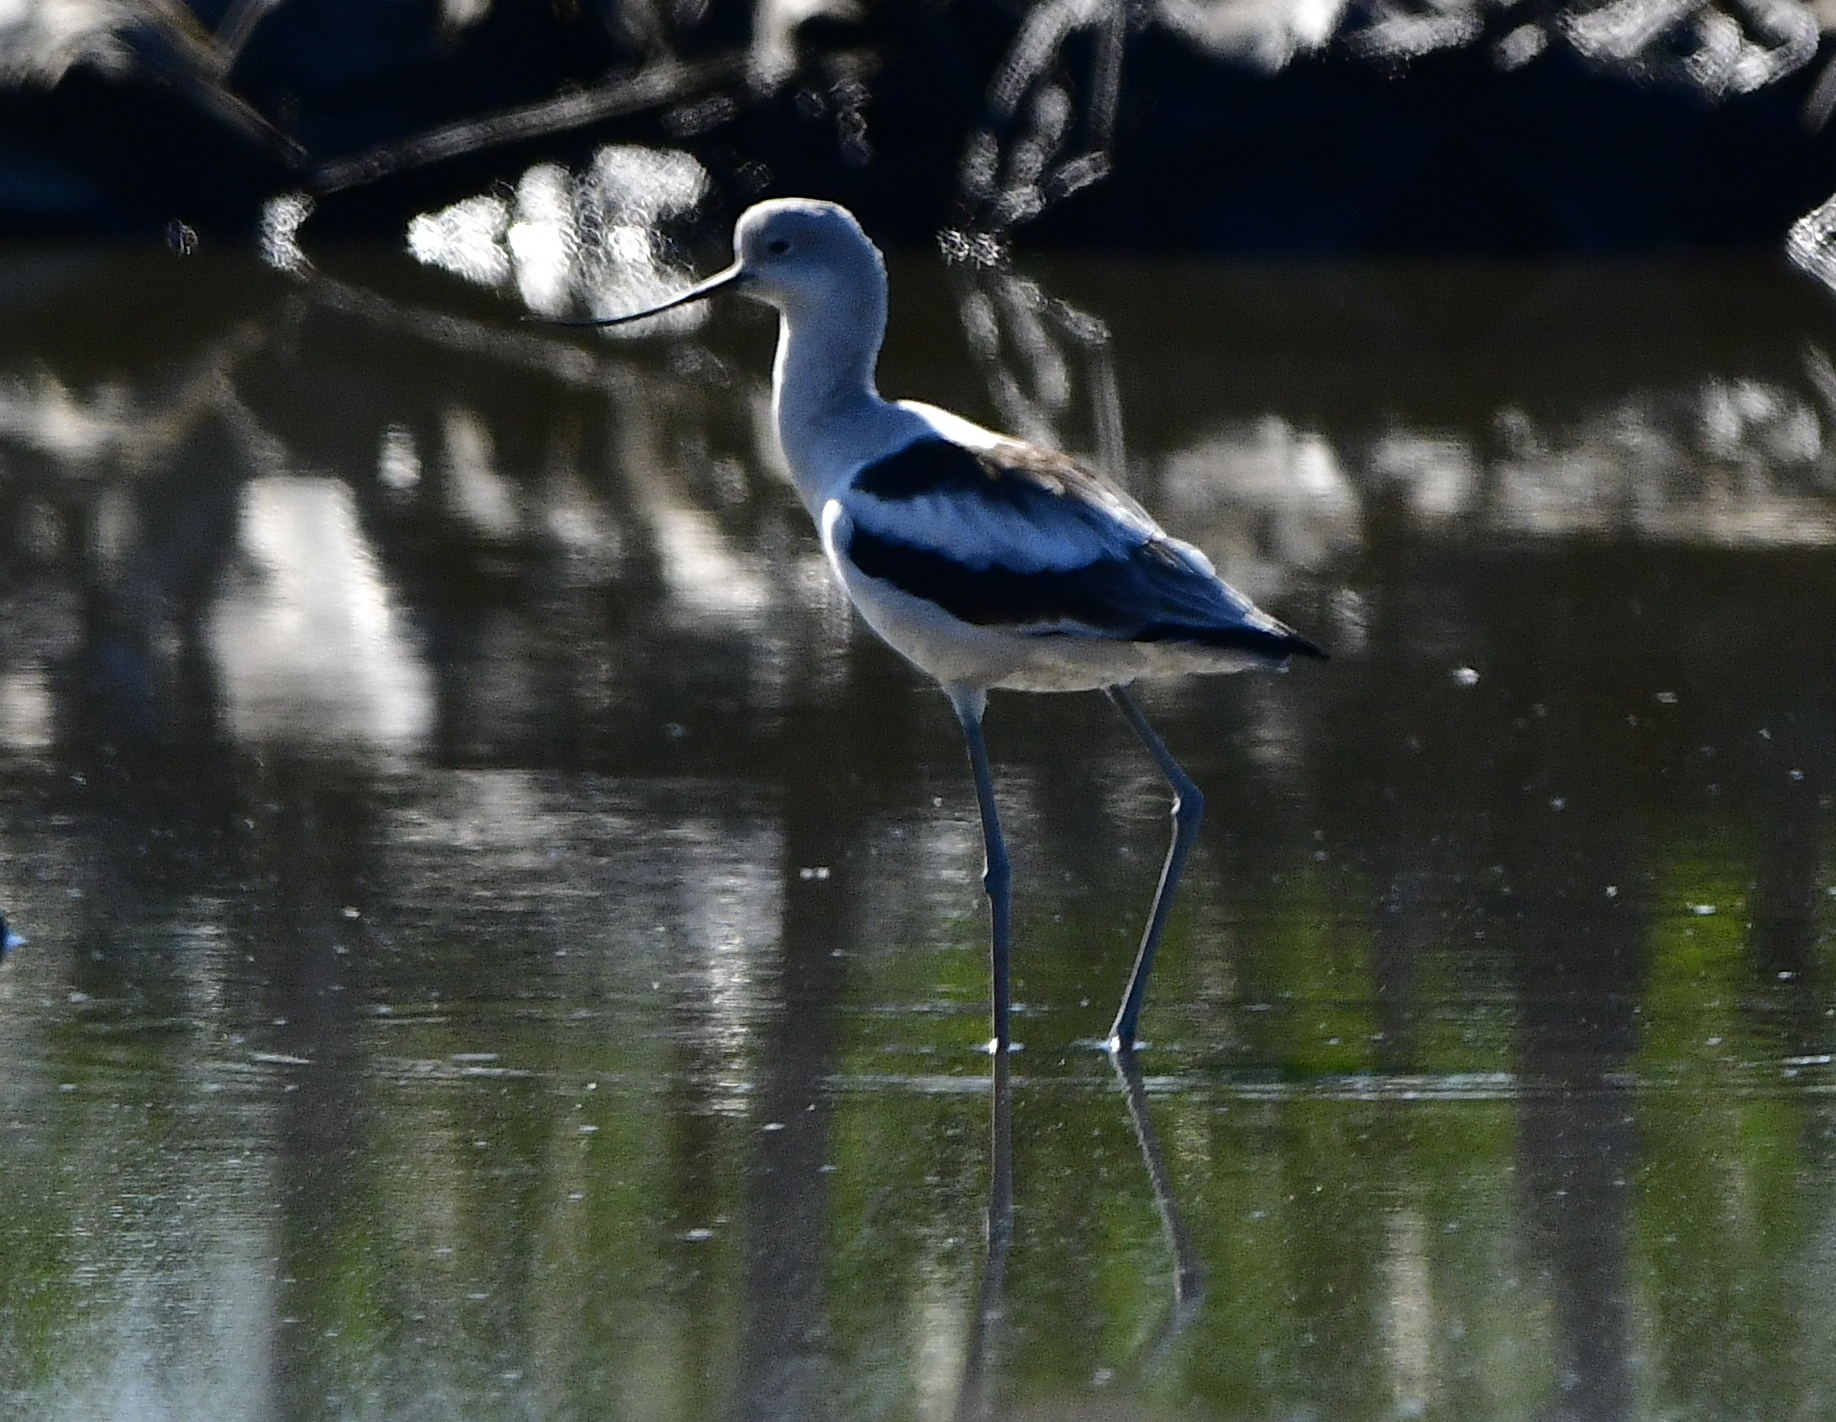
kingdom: Animalia
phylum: Chordata
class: Aves
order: Charadriiformes
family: Recurvirostridae
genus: Recurvirostra
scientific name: Recurvirostra americana
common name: American avocet
